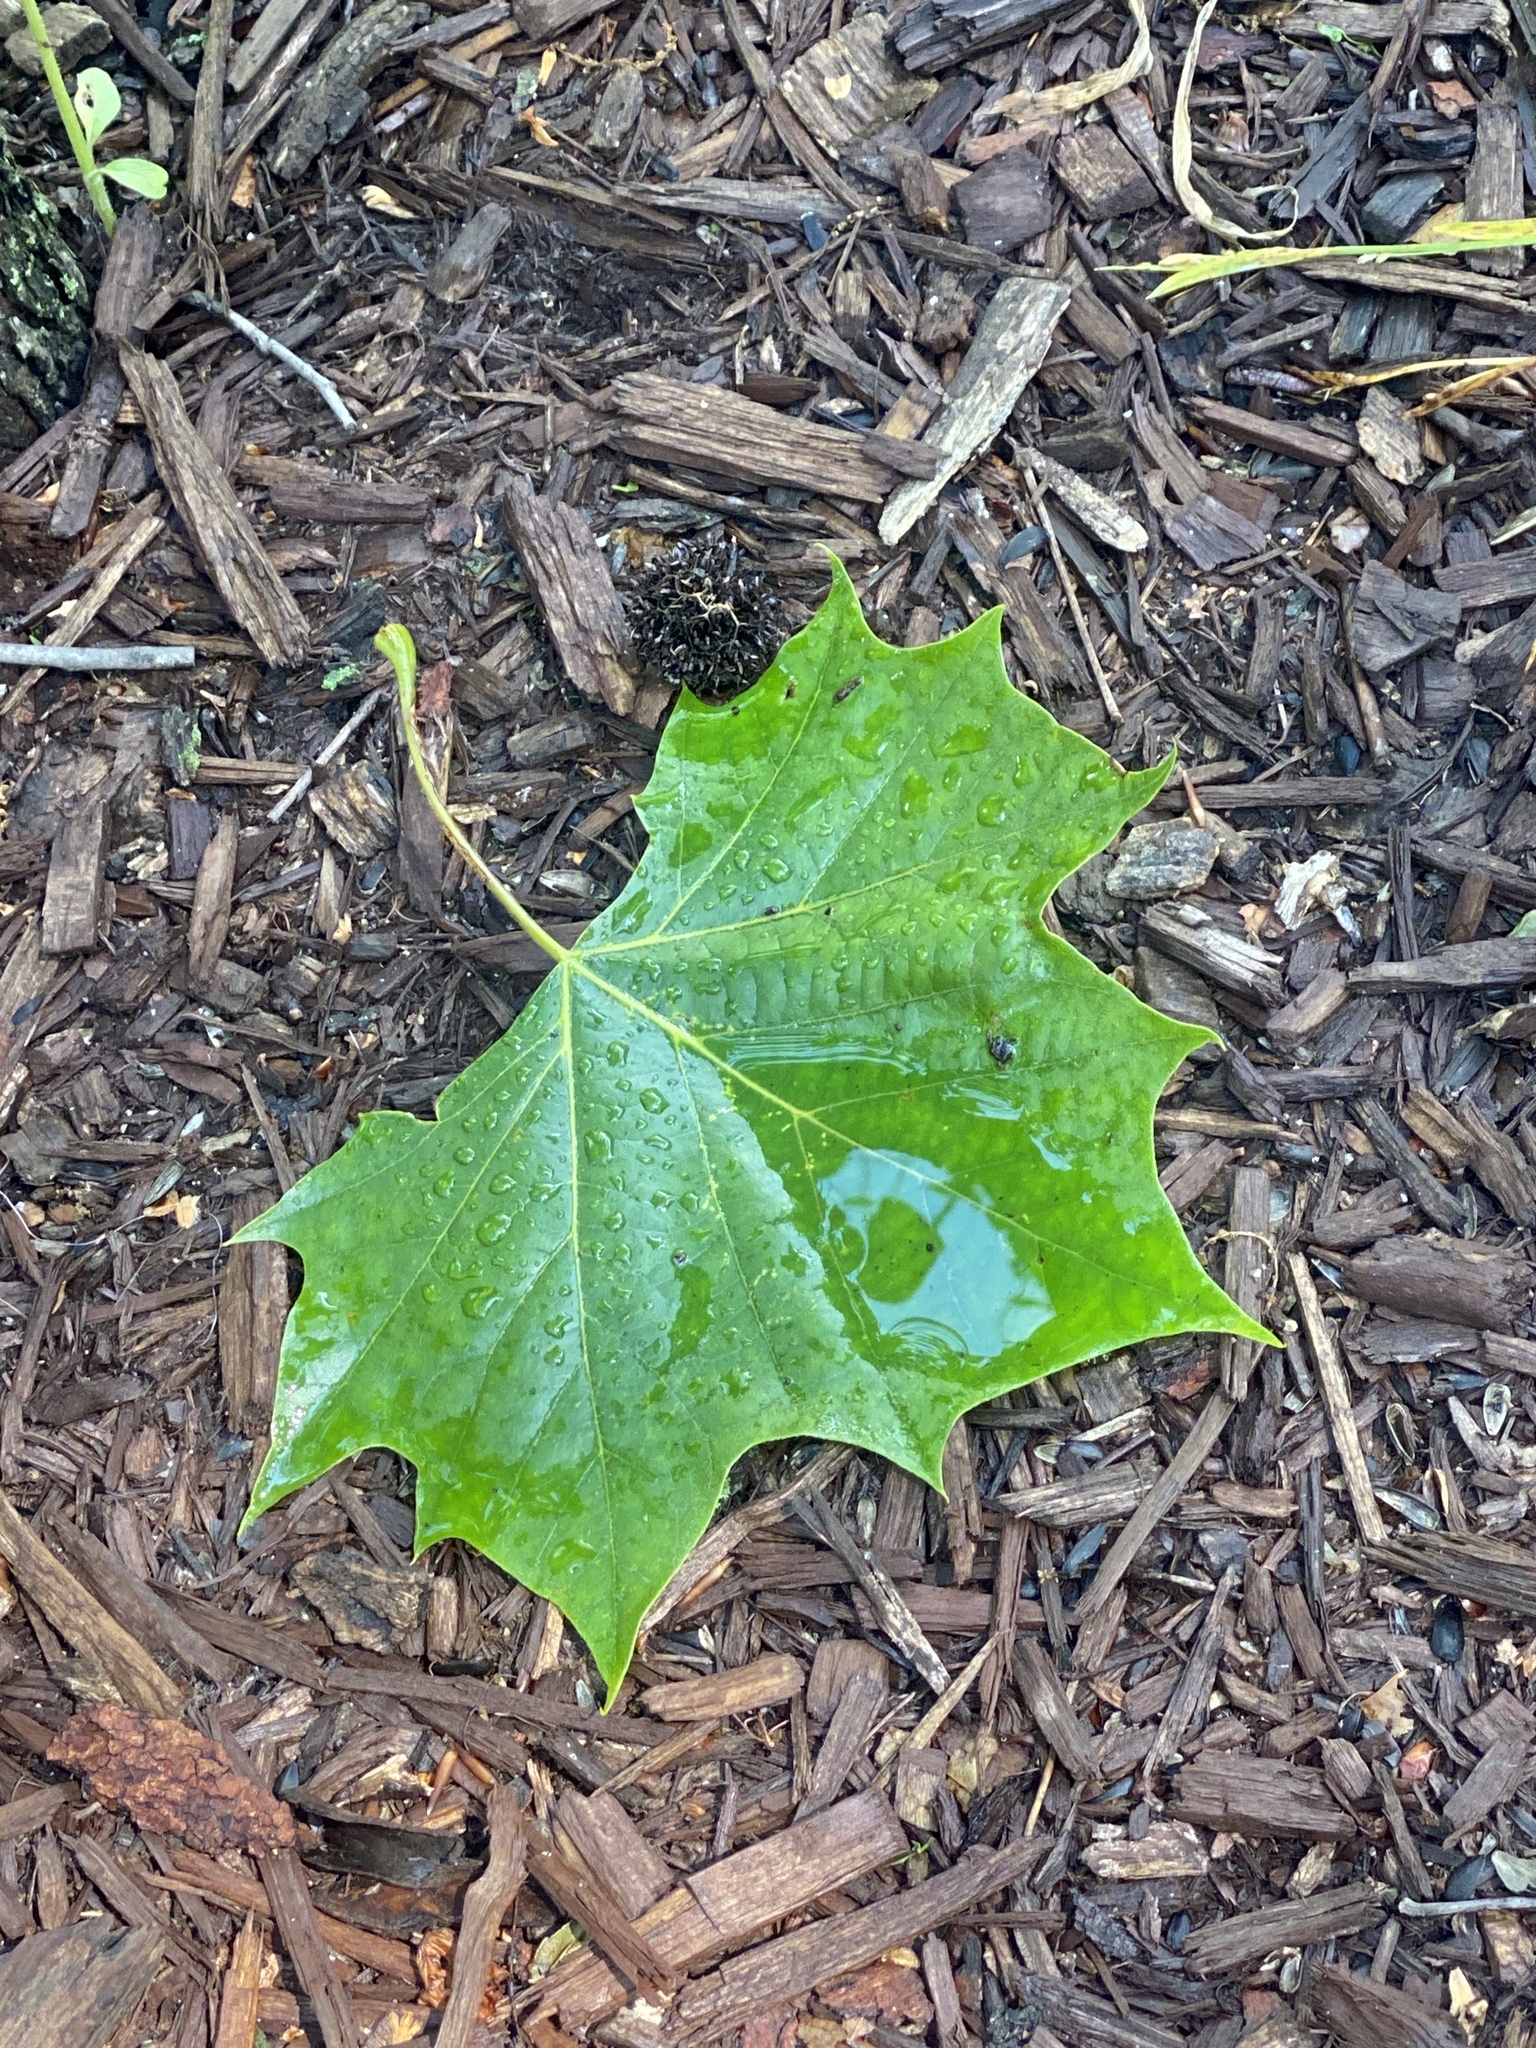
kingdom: Plantae
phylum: Tracheophyta
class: Magnoliopsida
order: Proteales
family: Platanaceae
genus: Platanus
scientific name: Platanus occidentalis
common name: American sycamore
